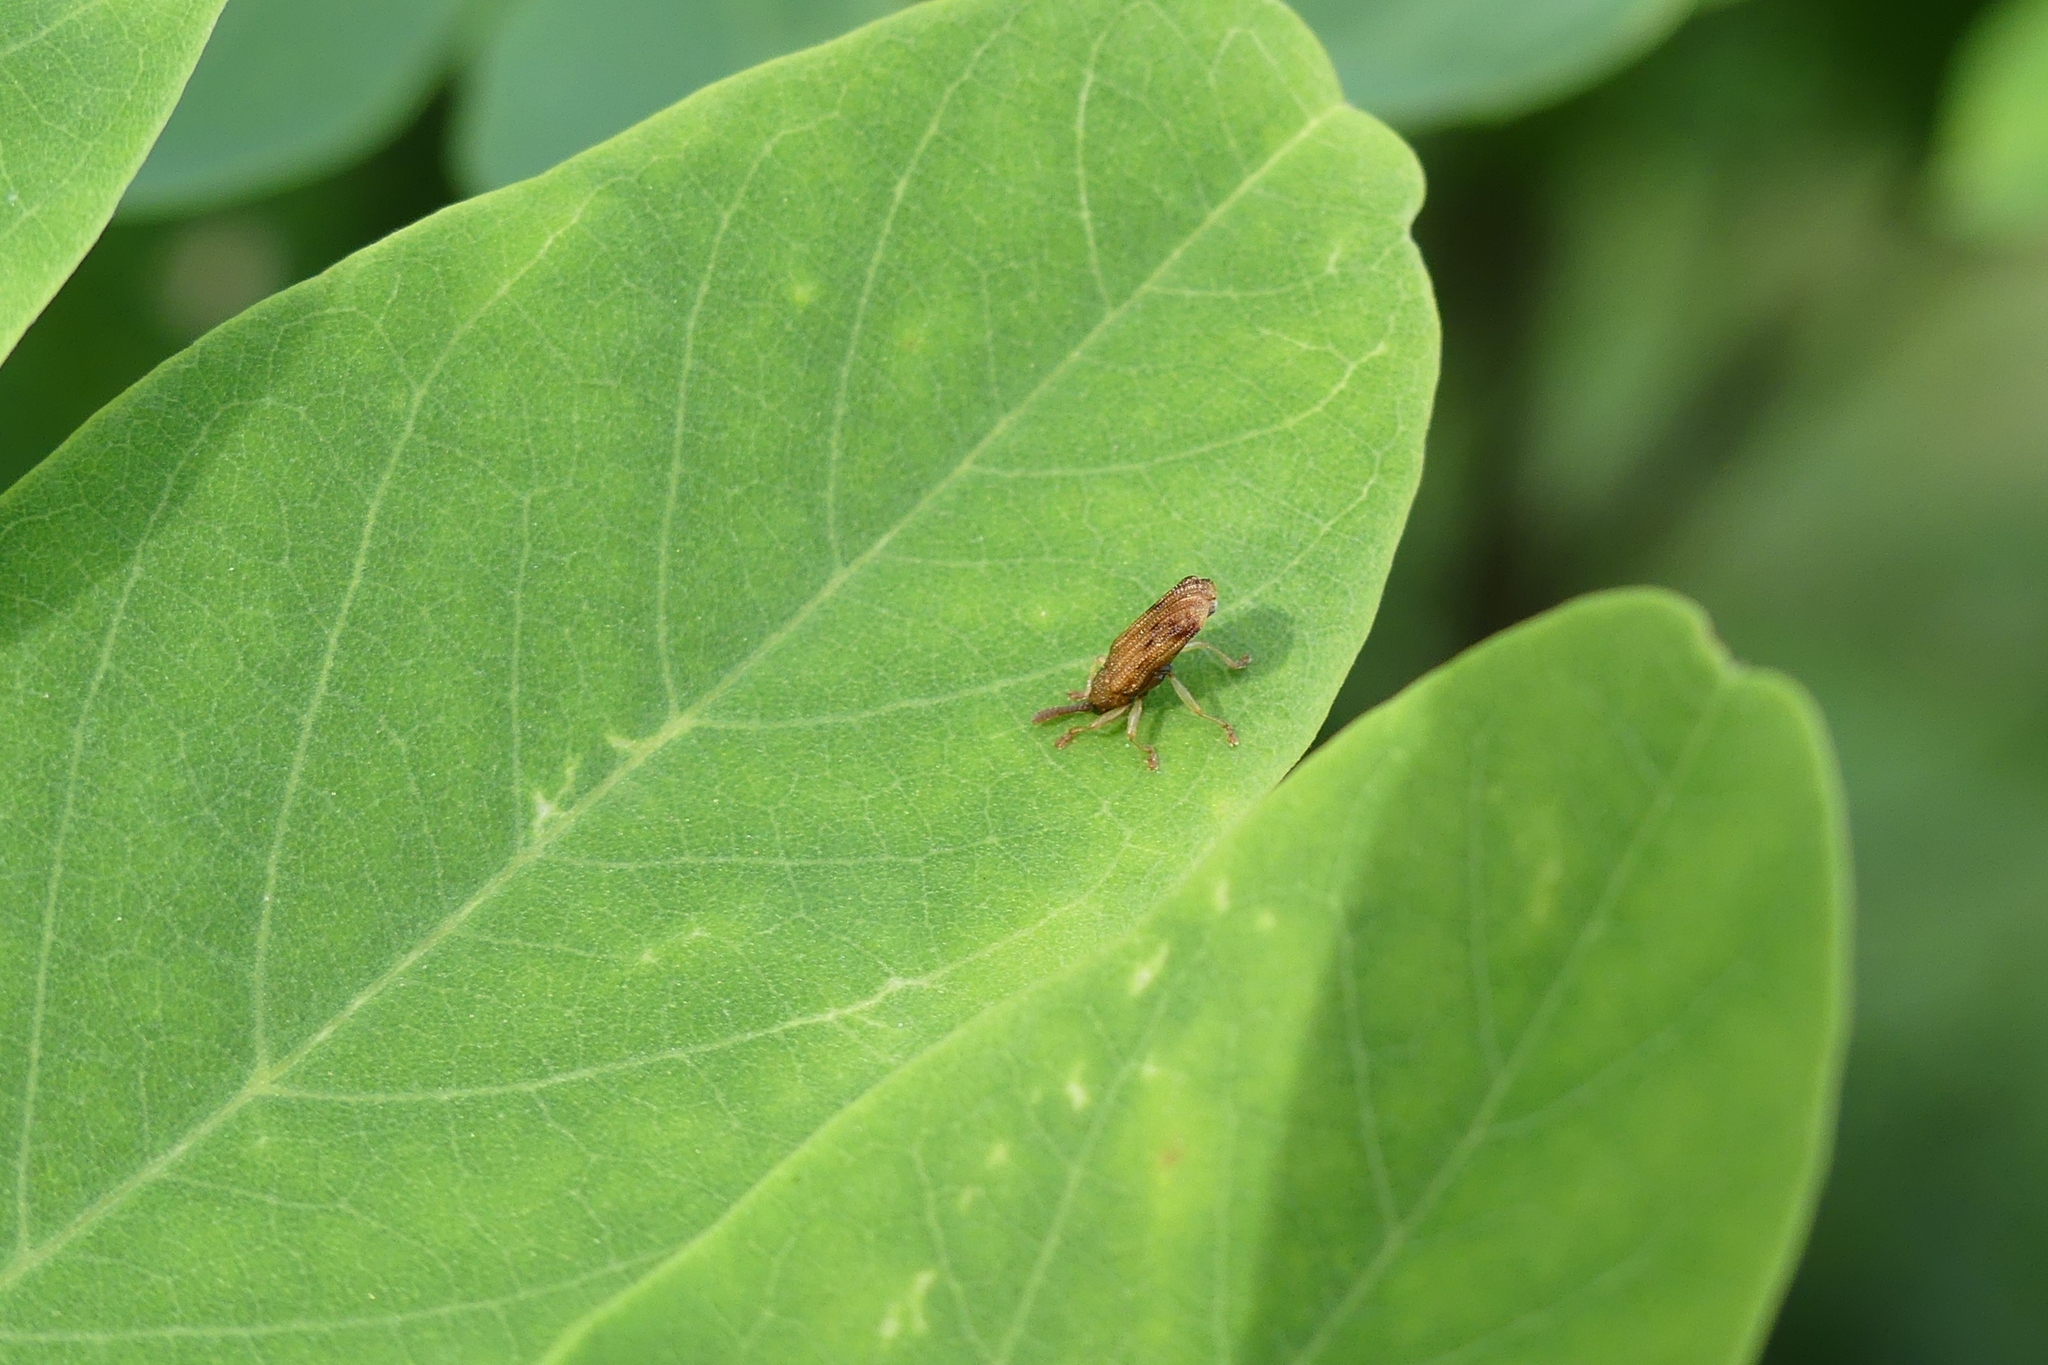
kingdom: Animalia
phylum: Arthropoda
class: Insecta
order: Coleoptera
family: Chrysomelidae
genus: Sumitrosis
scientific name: Sumitrosis rosea
